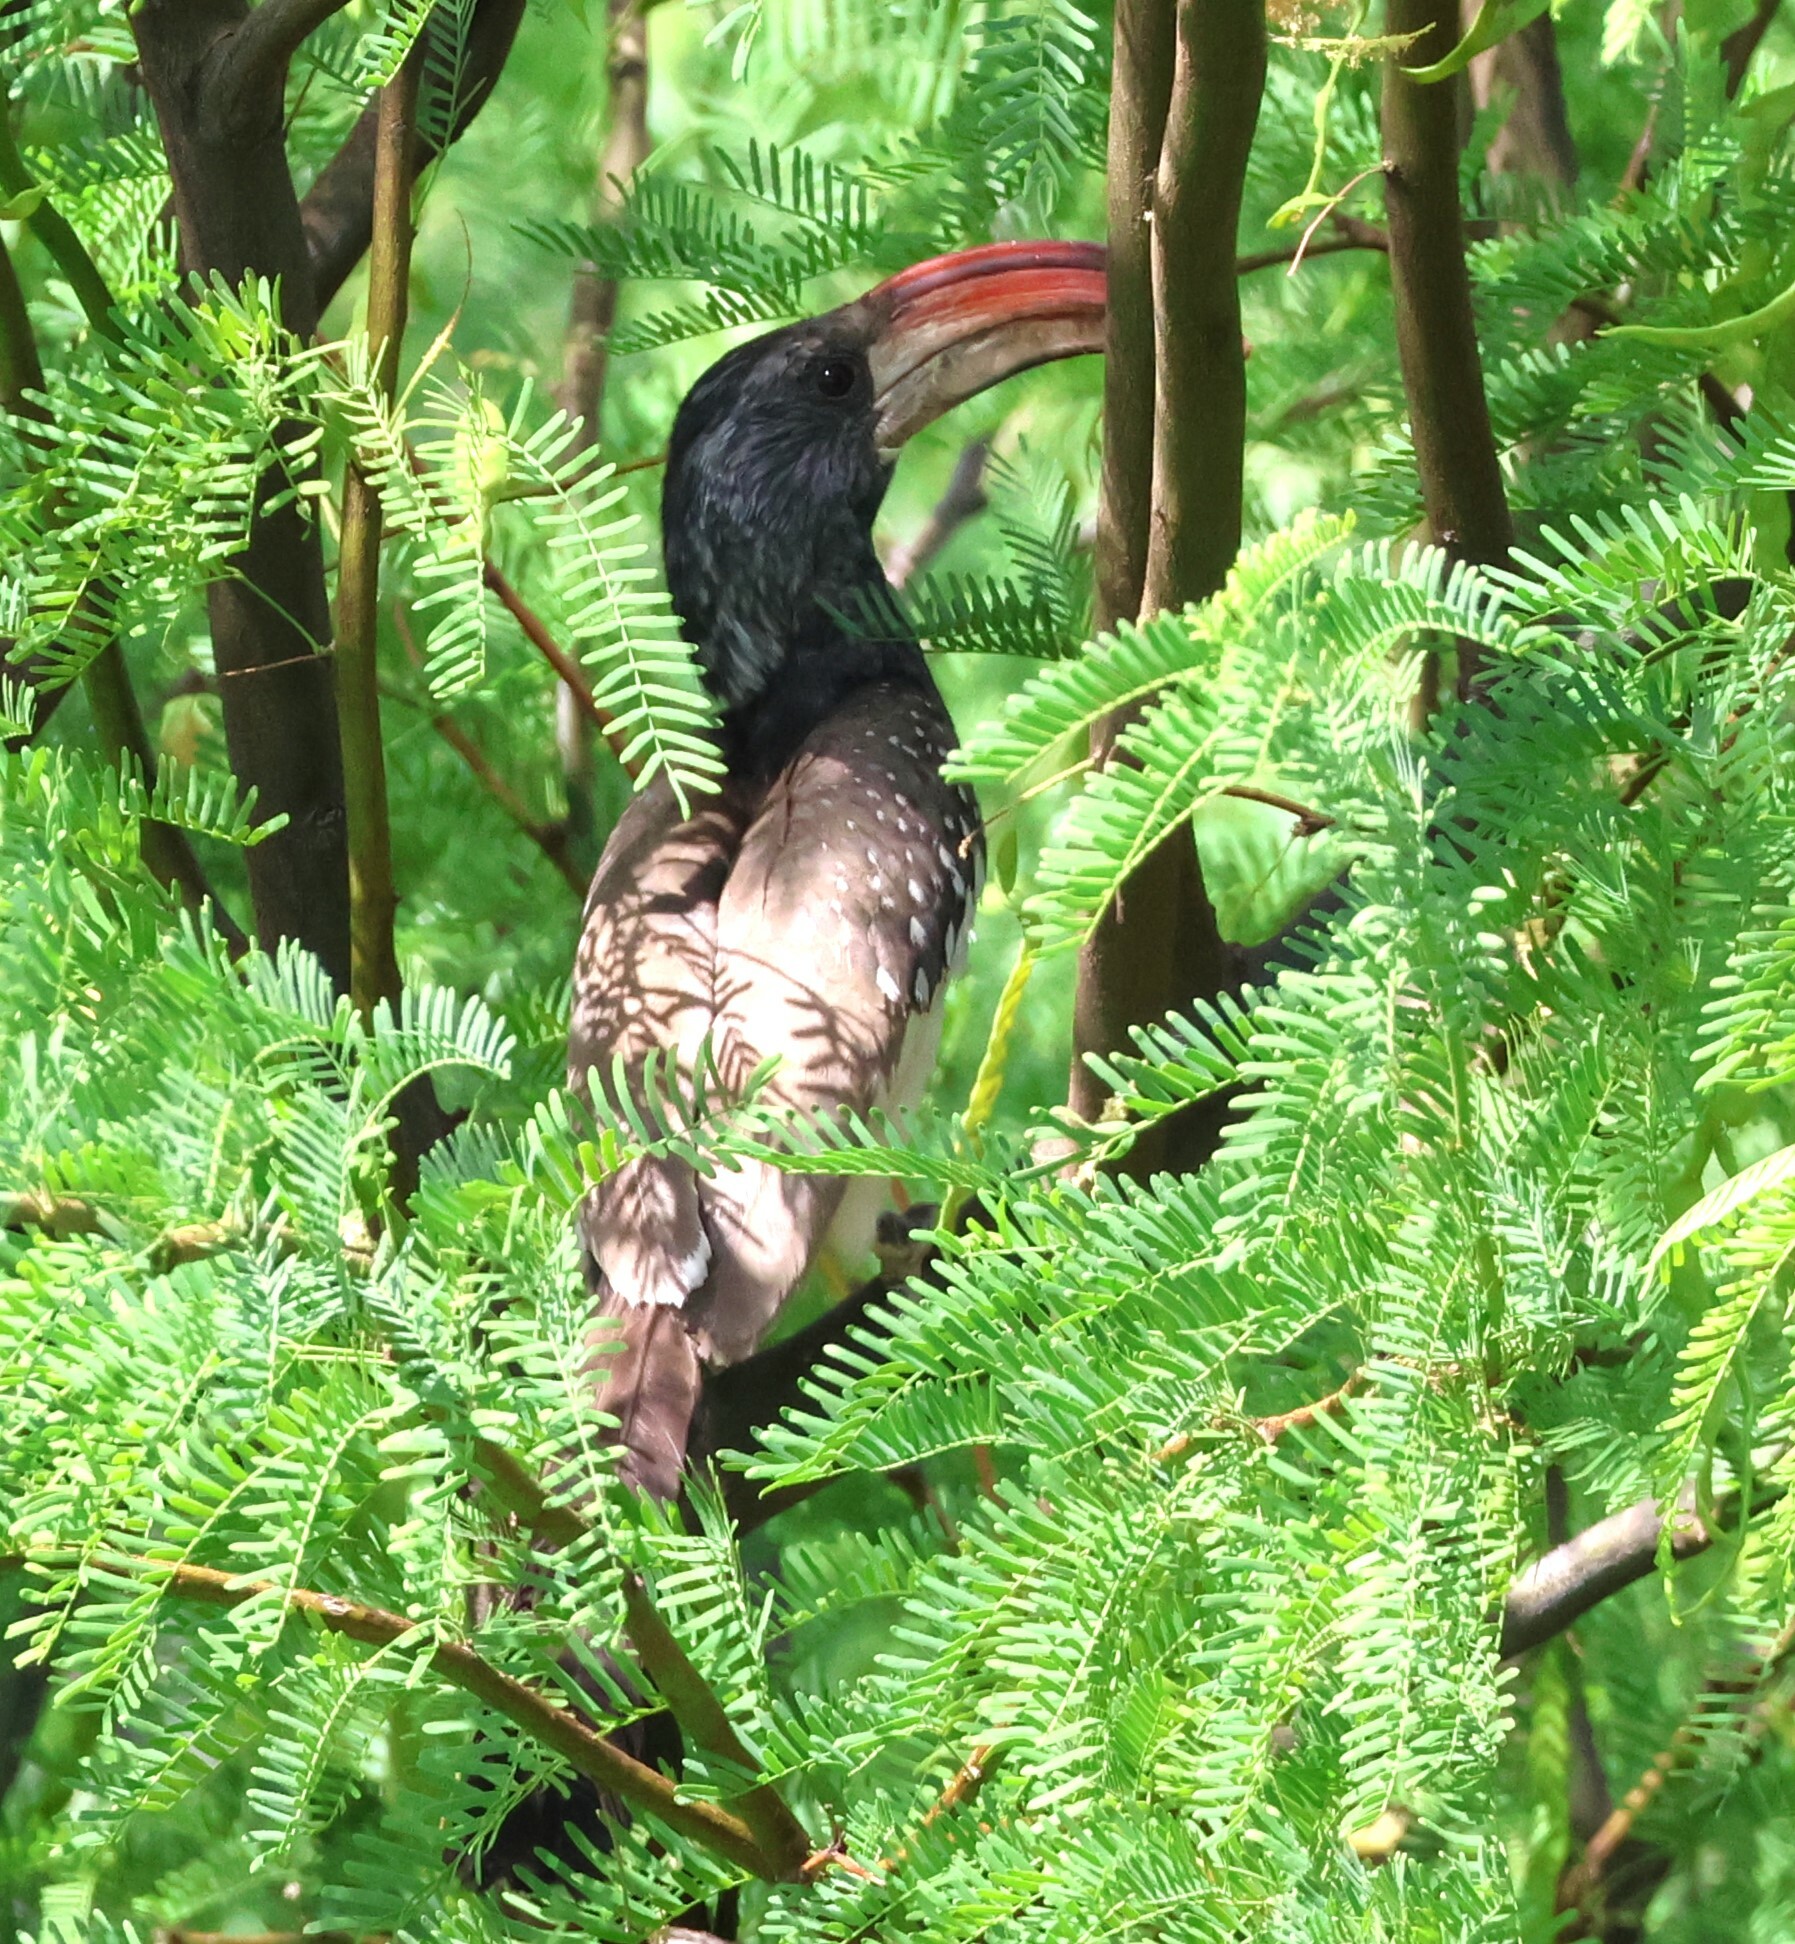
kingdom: Animalia
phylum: Chordata
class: Aves
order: Bucerotiformes
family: Bucerotidae
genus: Tockus
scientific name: Tockus monteiri
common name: Monteiro's hornbill
